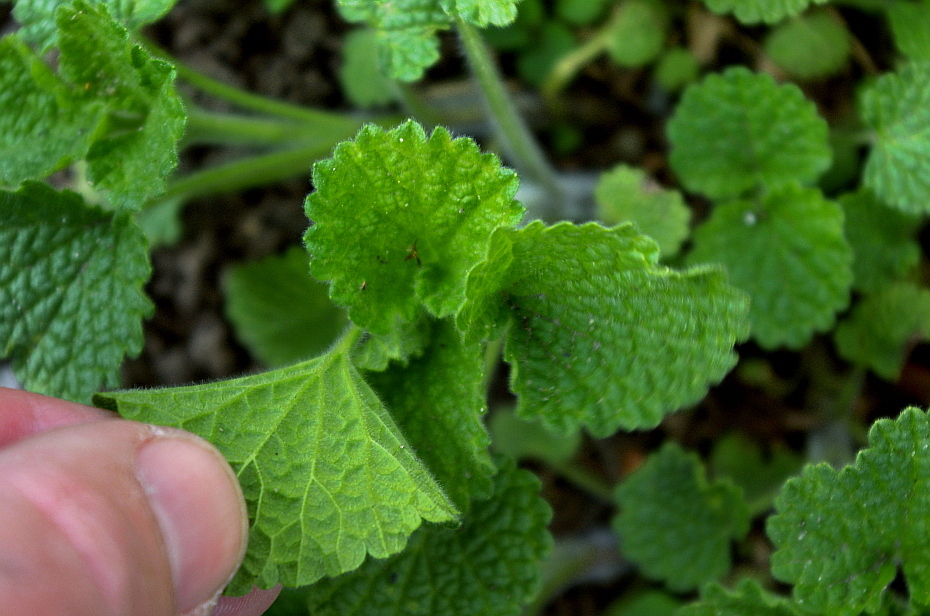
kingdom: Plantae
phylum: Tracheophyta
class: Magnoliopsida
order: Lamiales
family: Lamiaceae
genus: Ballota
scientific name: Ballota nigra
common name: Black horehound
